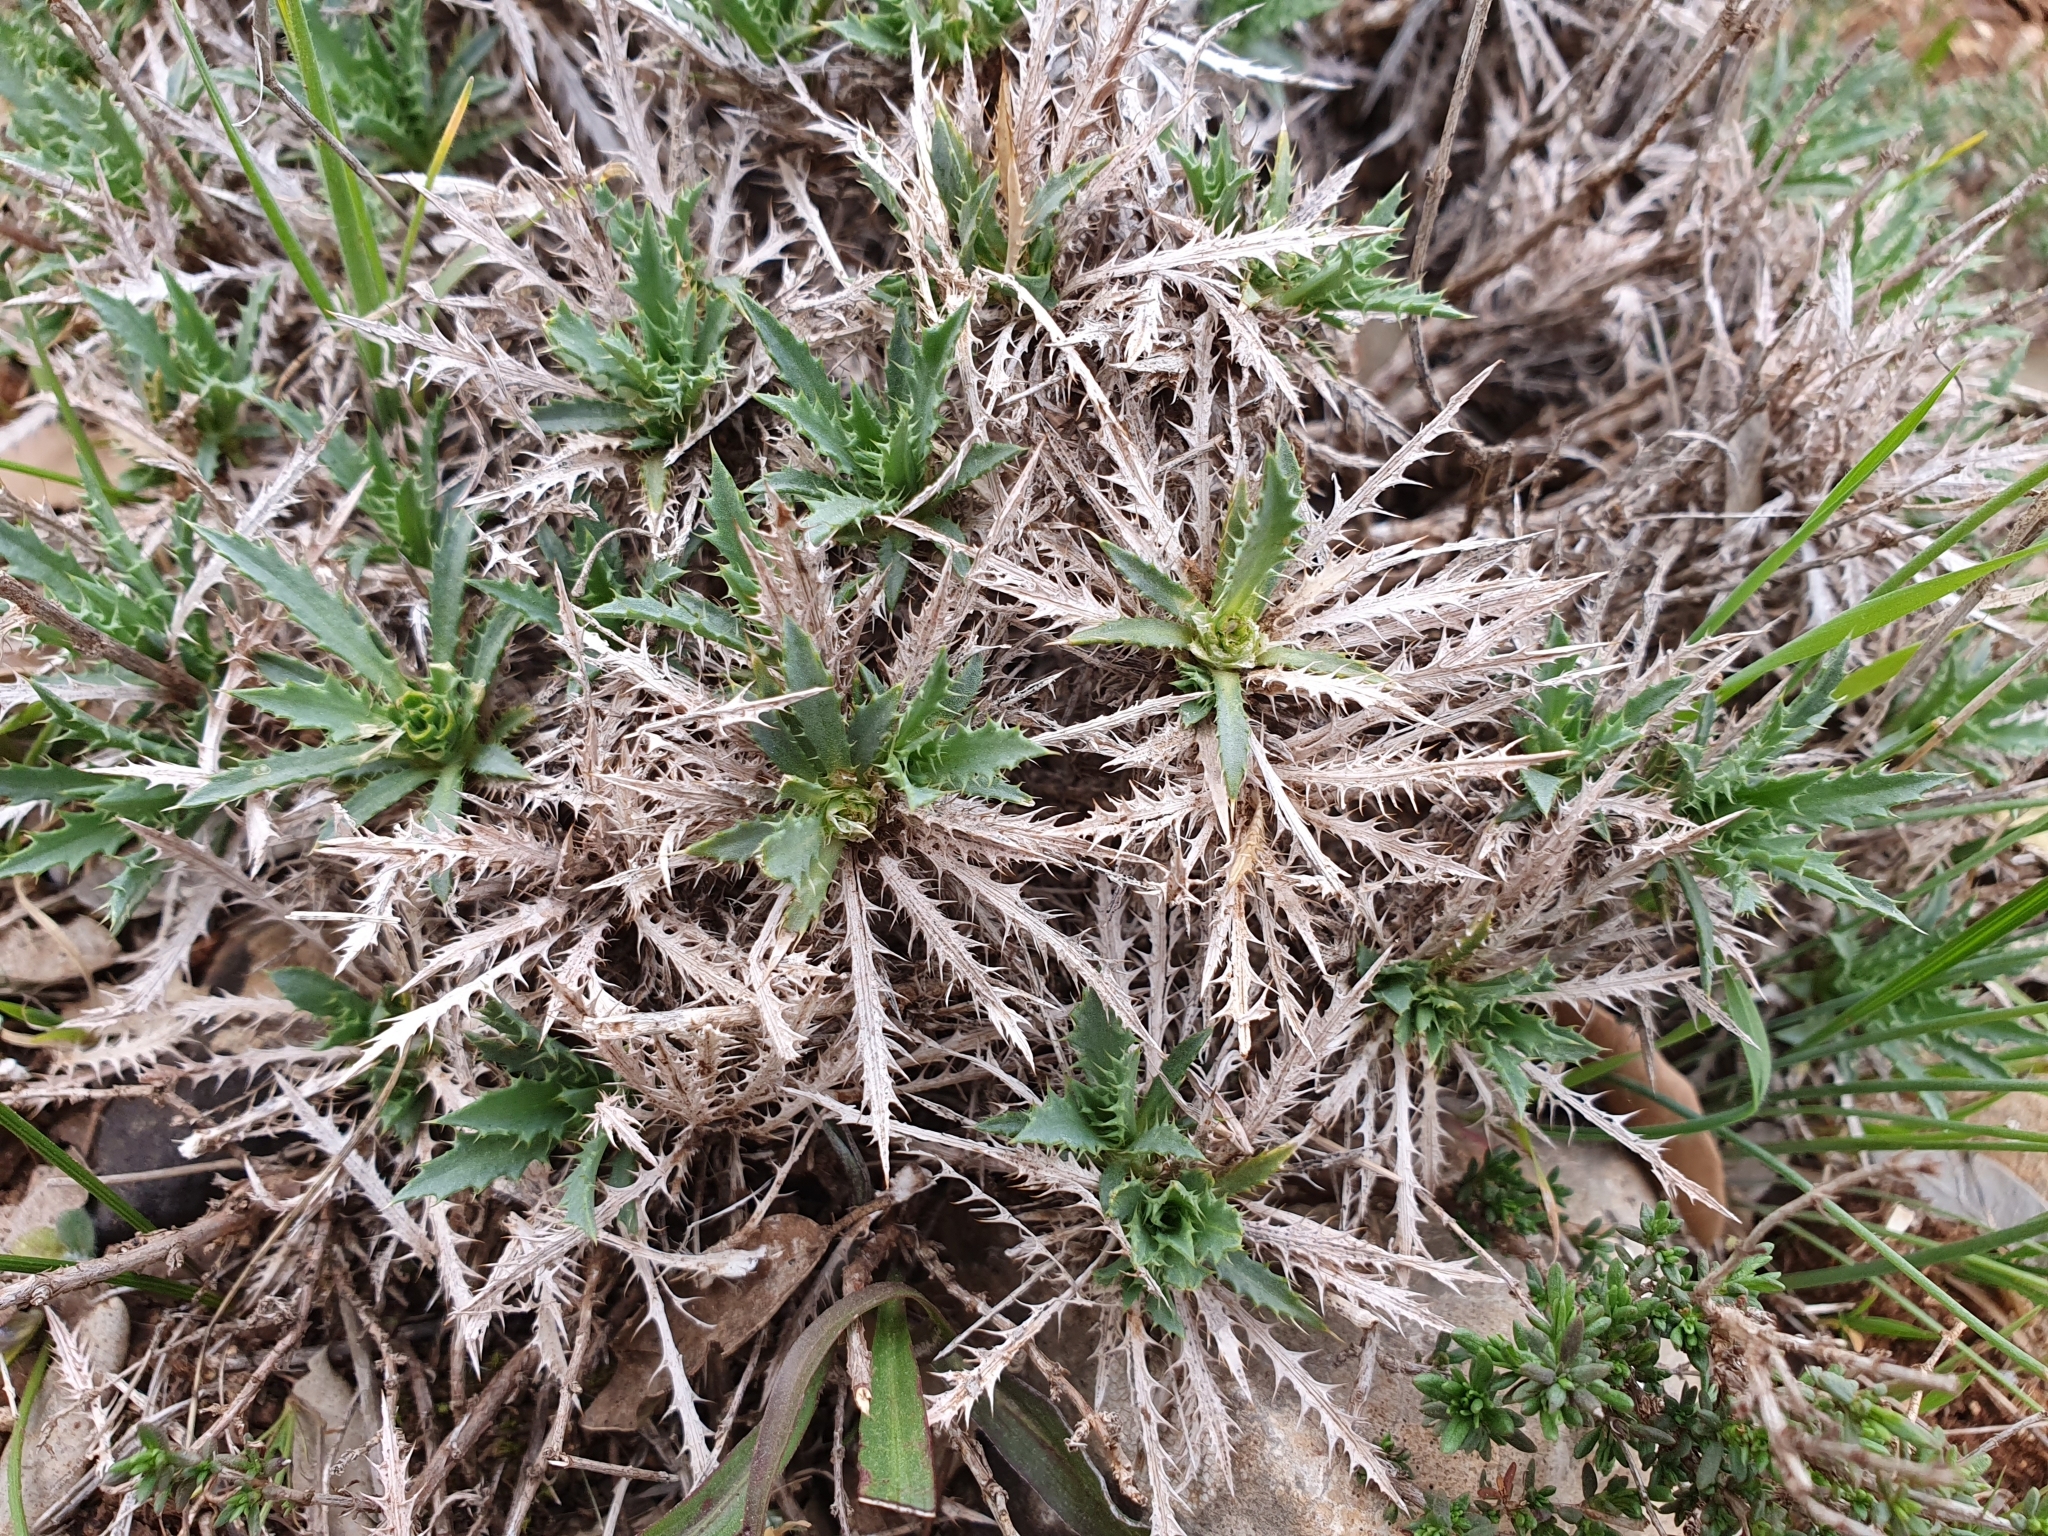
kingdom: Plantae
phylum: Tracheophyta
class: Magnoliopsida
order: Asterales
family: Asteraceae
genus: Atractylis
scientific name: Atractylis caespitosa
